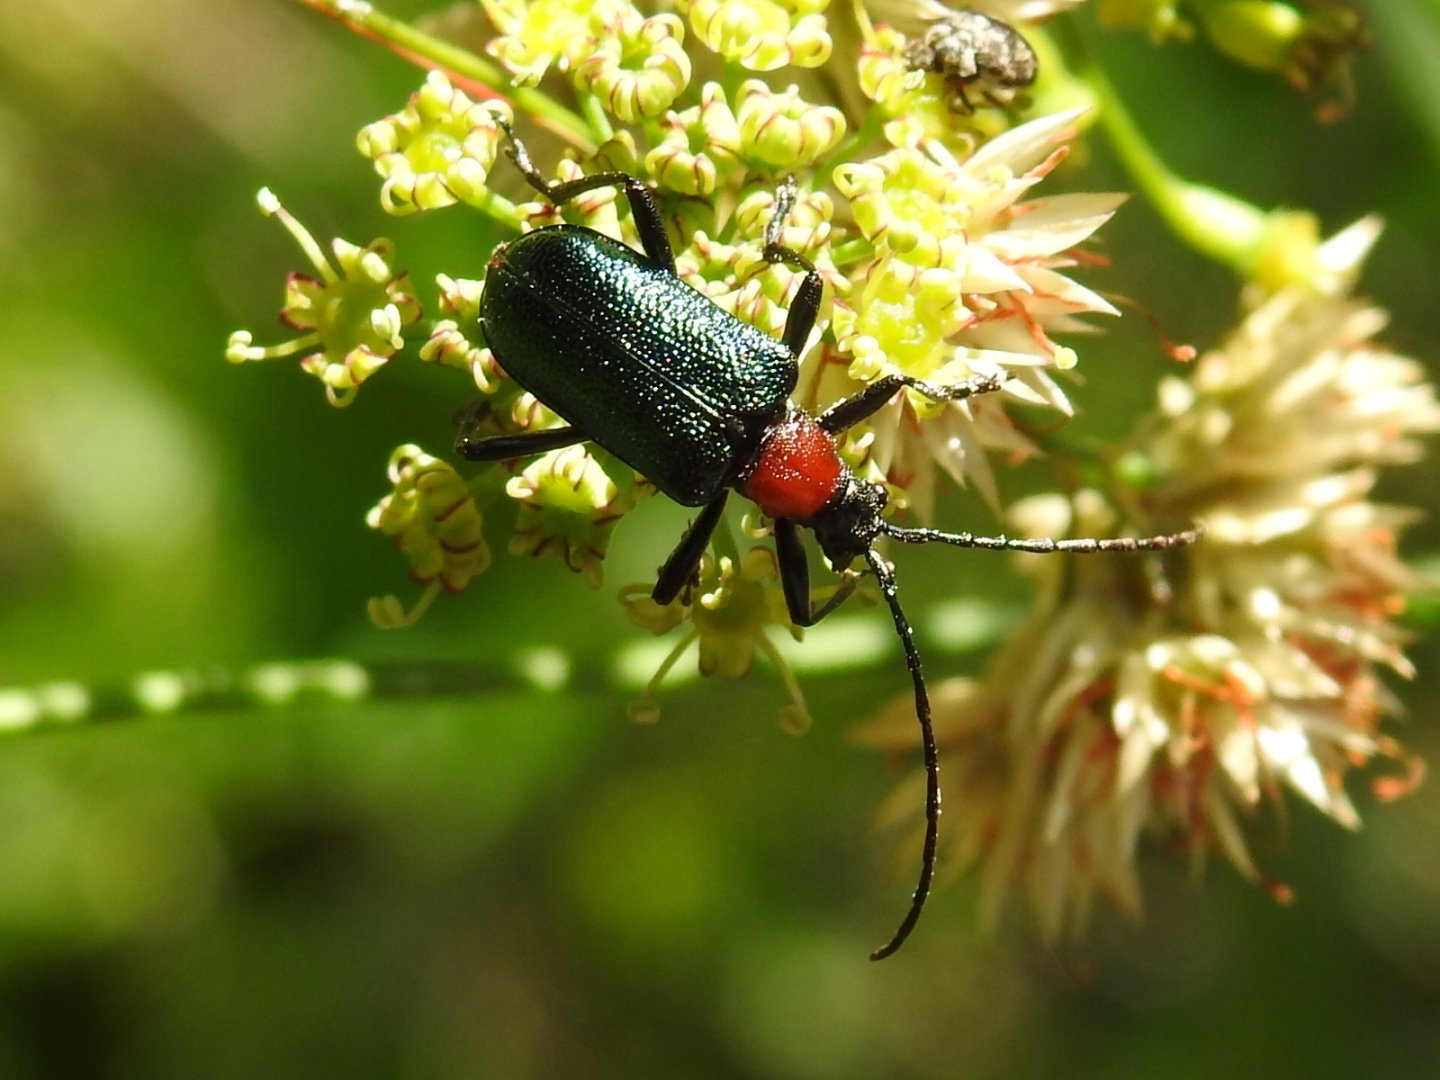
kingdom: Animalia
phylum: Arthropoda
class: Insecta
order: Coleoptera
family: Cerambycidae
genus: Dinoptera
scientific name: Dinoptera collaris
